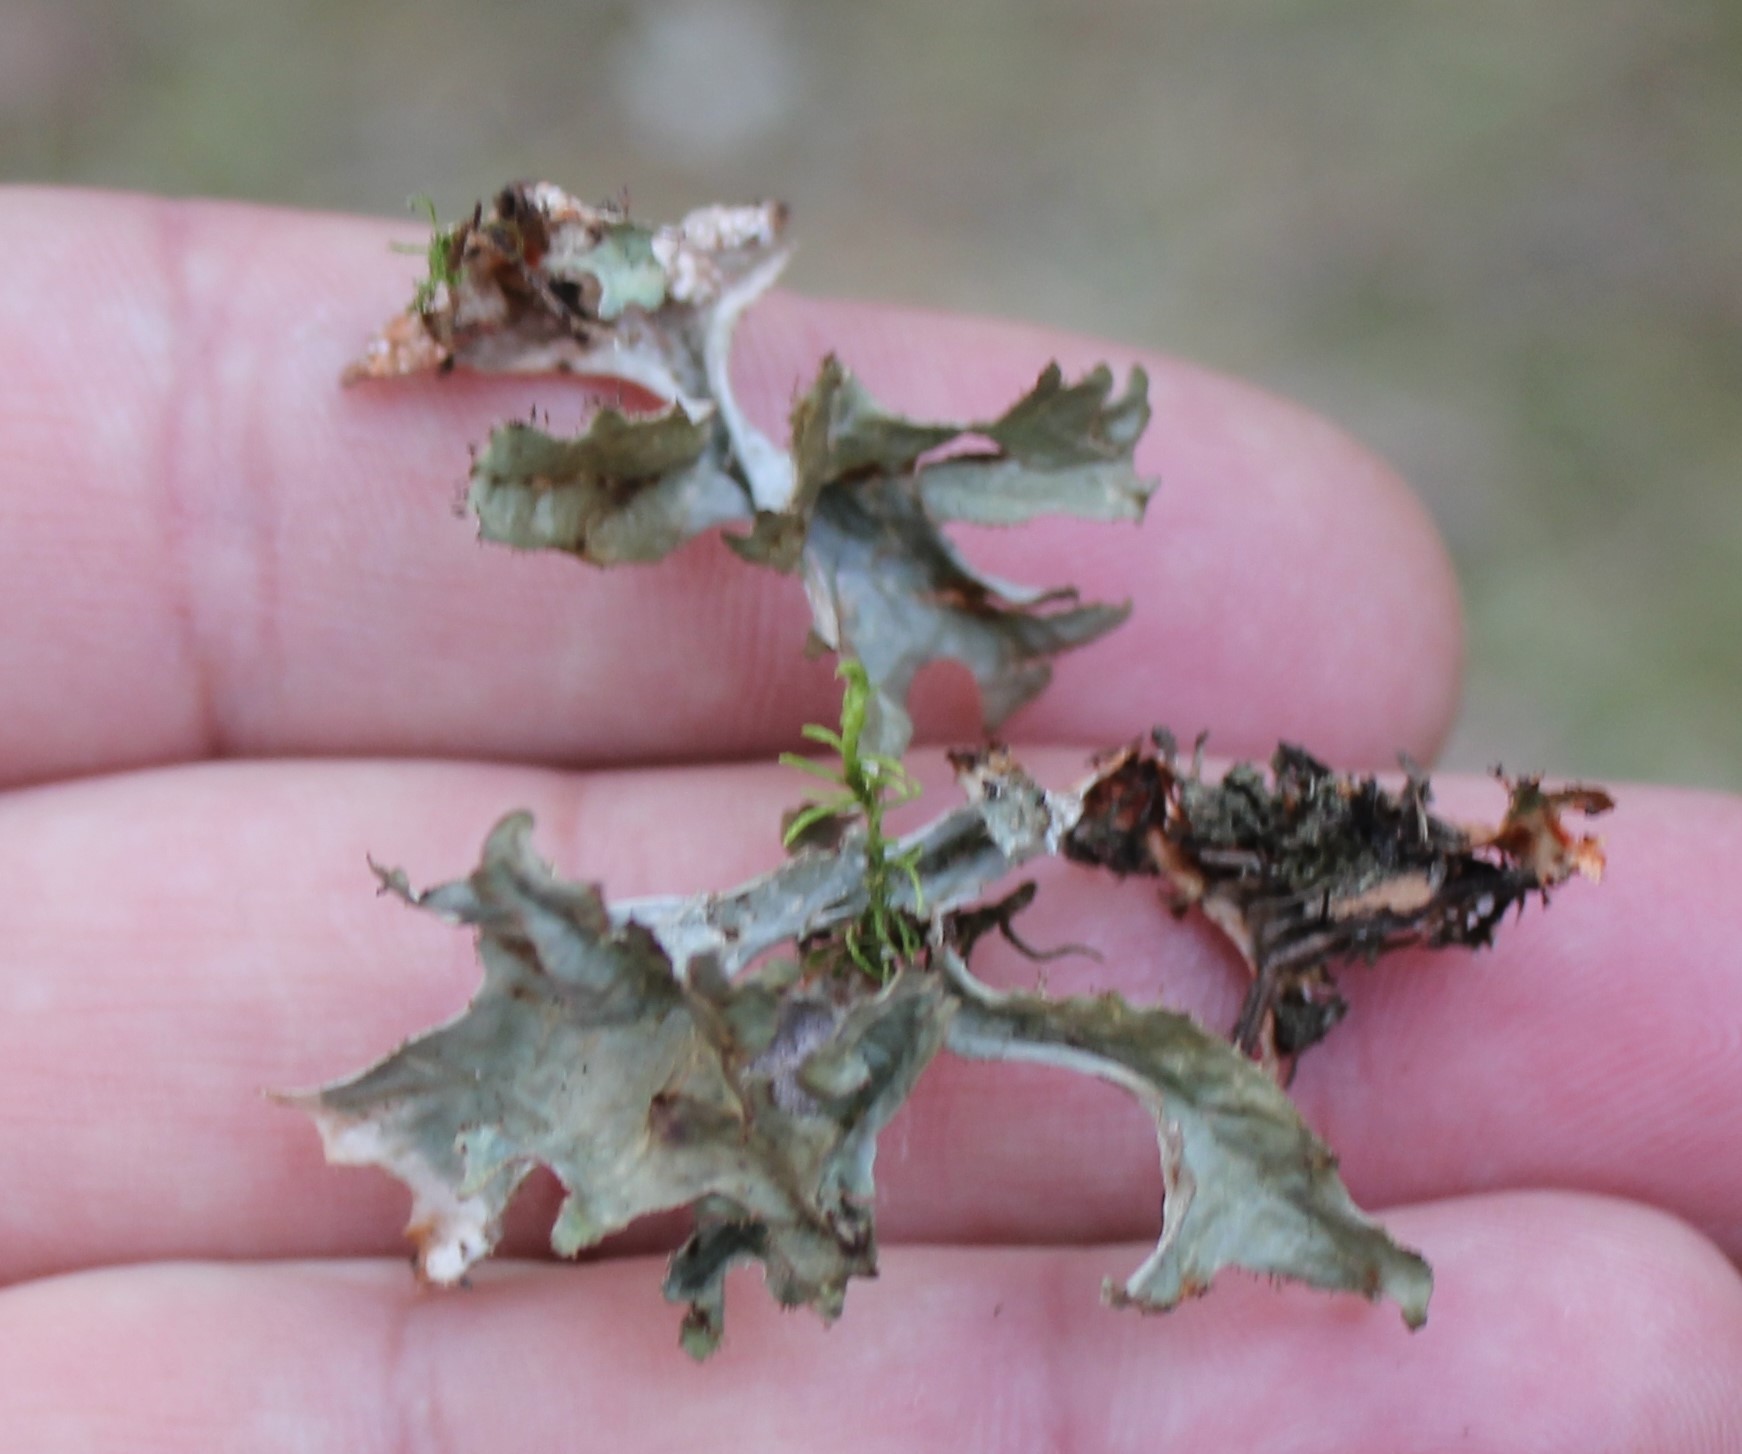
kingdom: Fungi
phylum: Ascomycota
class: Lecanoromycetes
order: Lecanorales
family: Parmeliaceae
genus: Cetraria
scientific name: Cetraria islandica
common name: Iceland lichen
